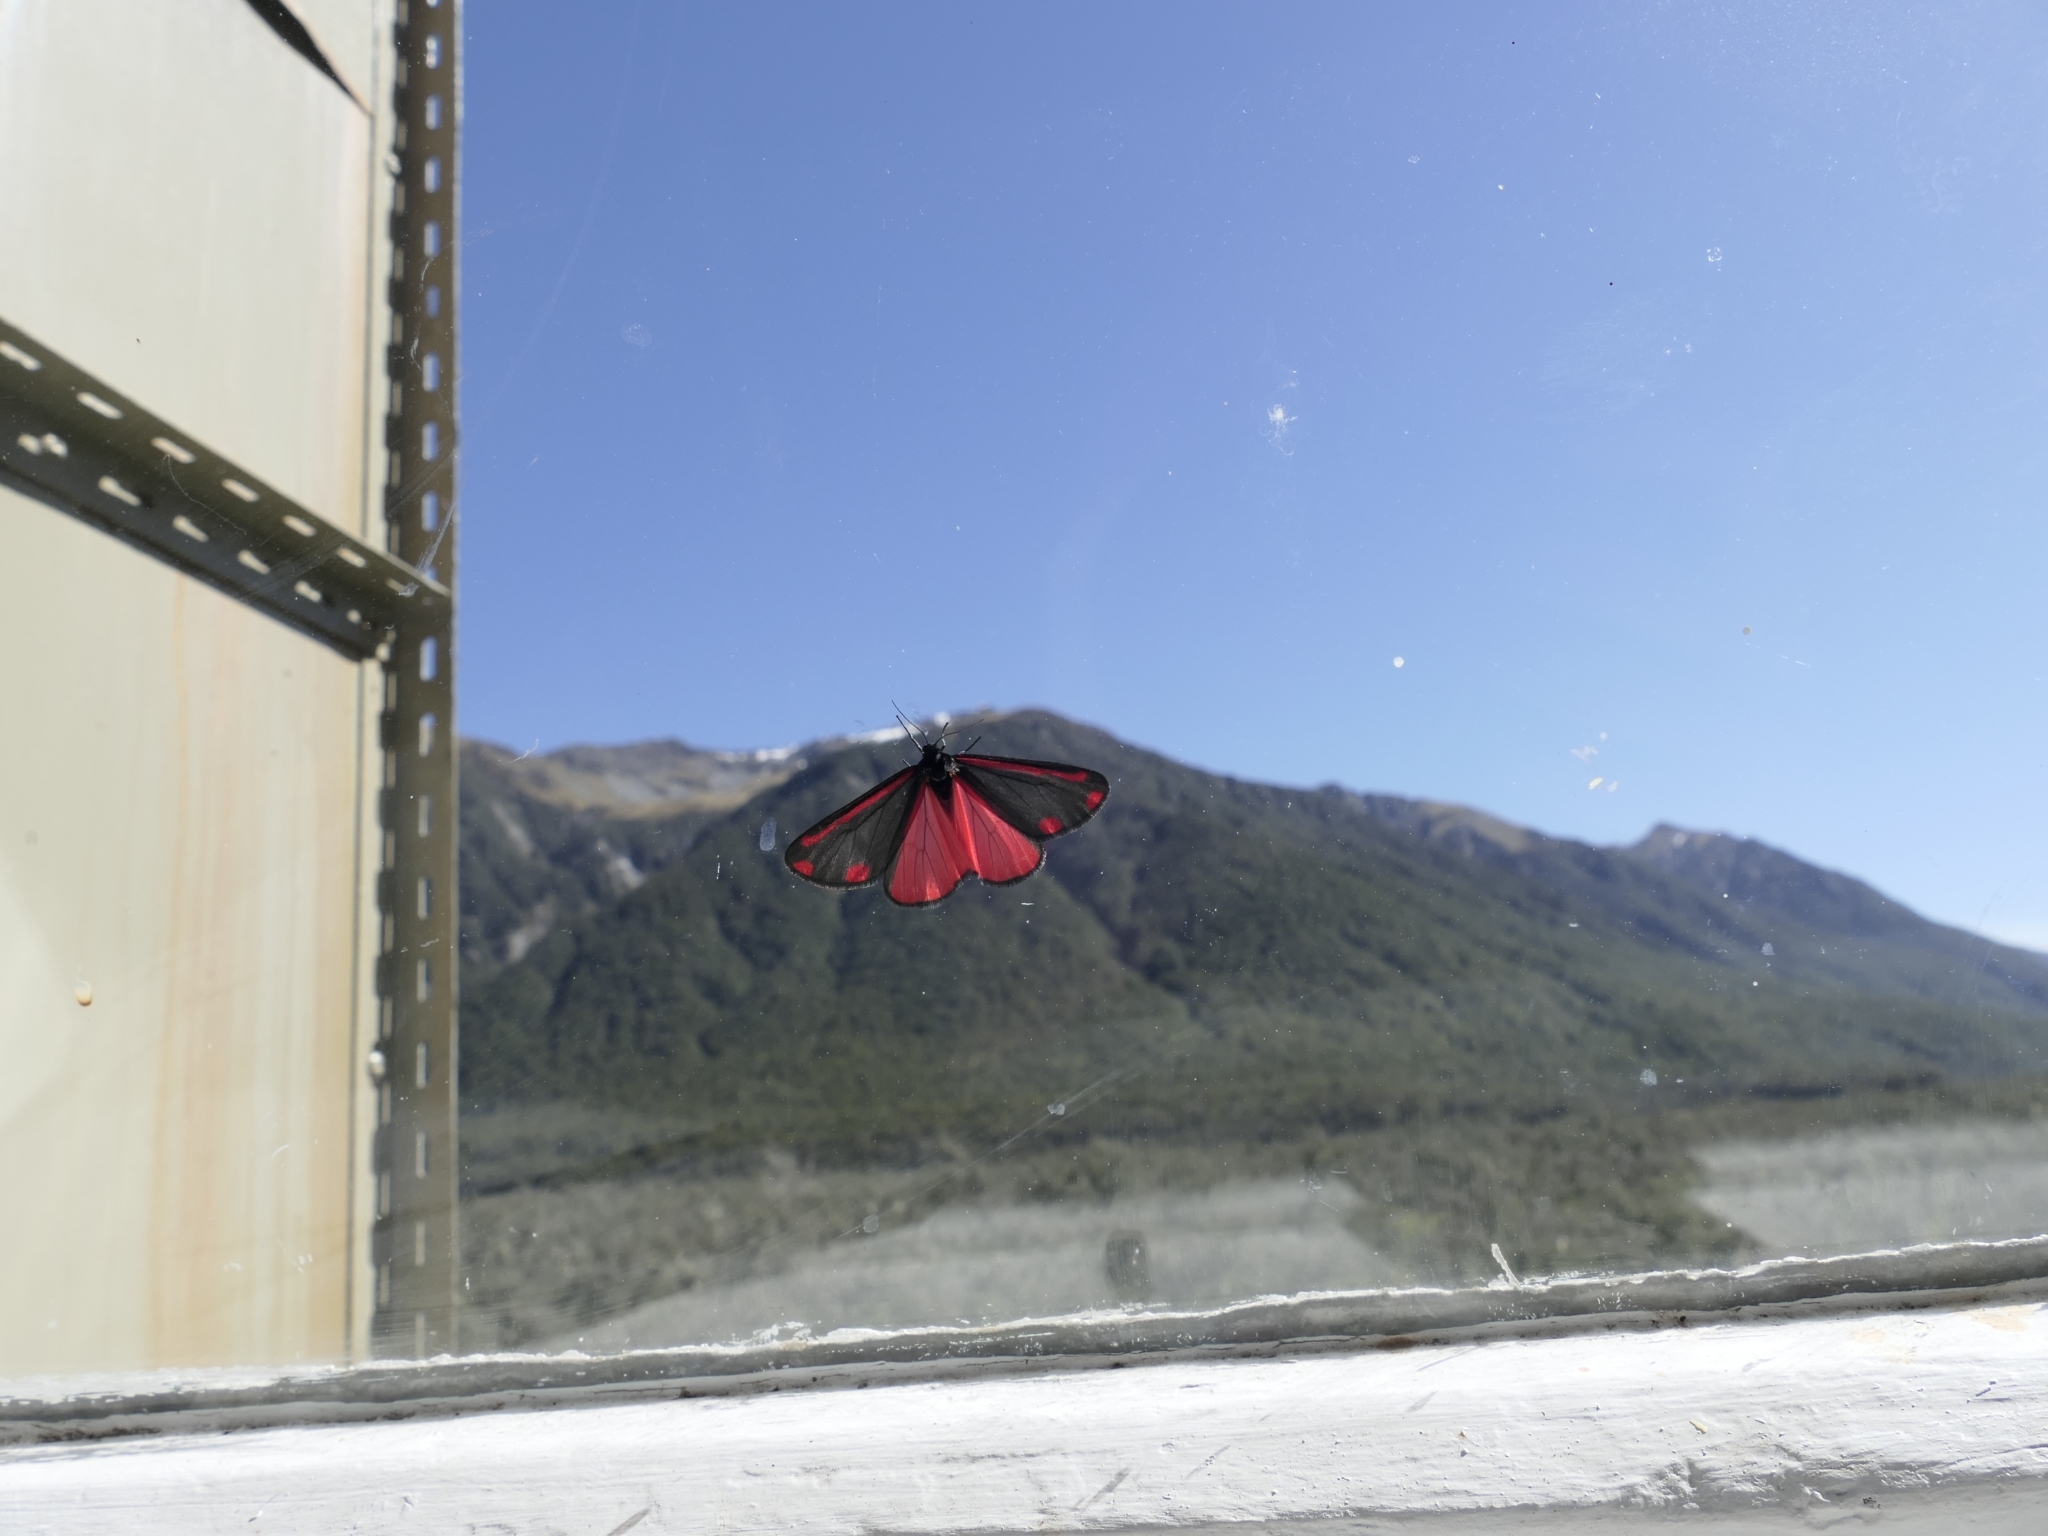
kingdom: Animalia
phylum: Arthropoda
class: Insecta
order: Lepidoptera
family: Erebidae
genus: Tyria
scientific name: Tyria jacobaeae
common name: Cinnabar
